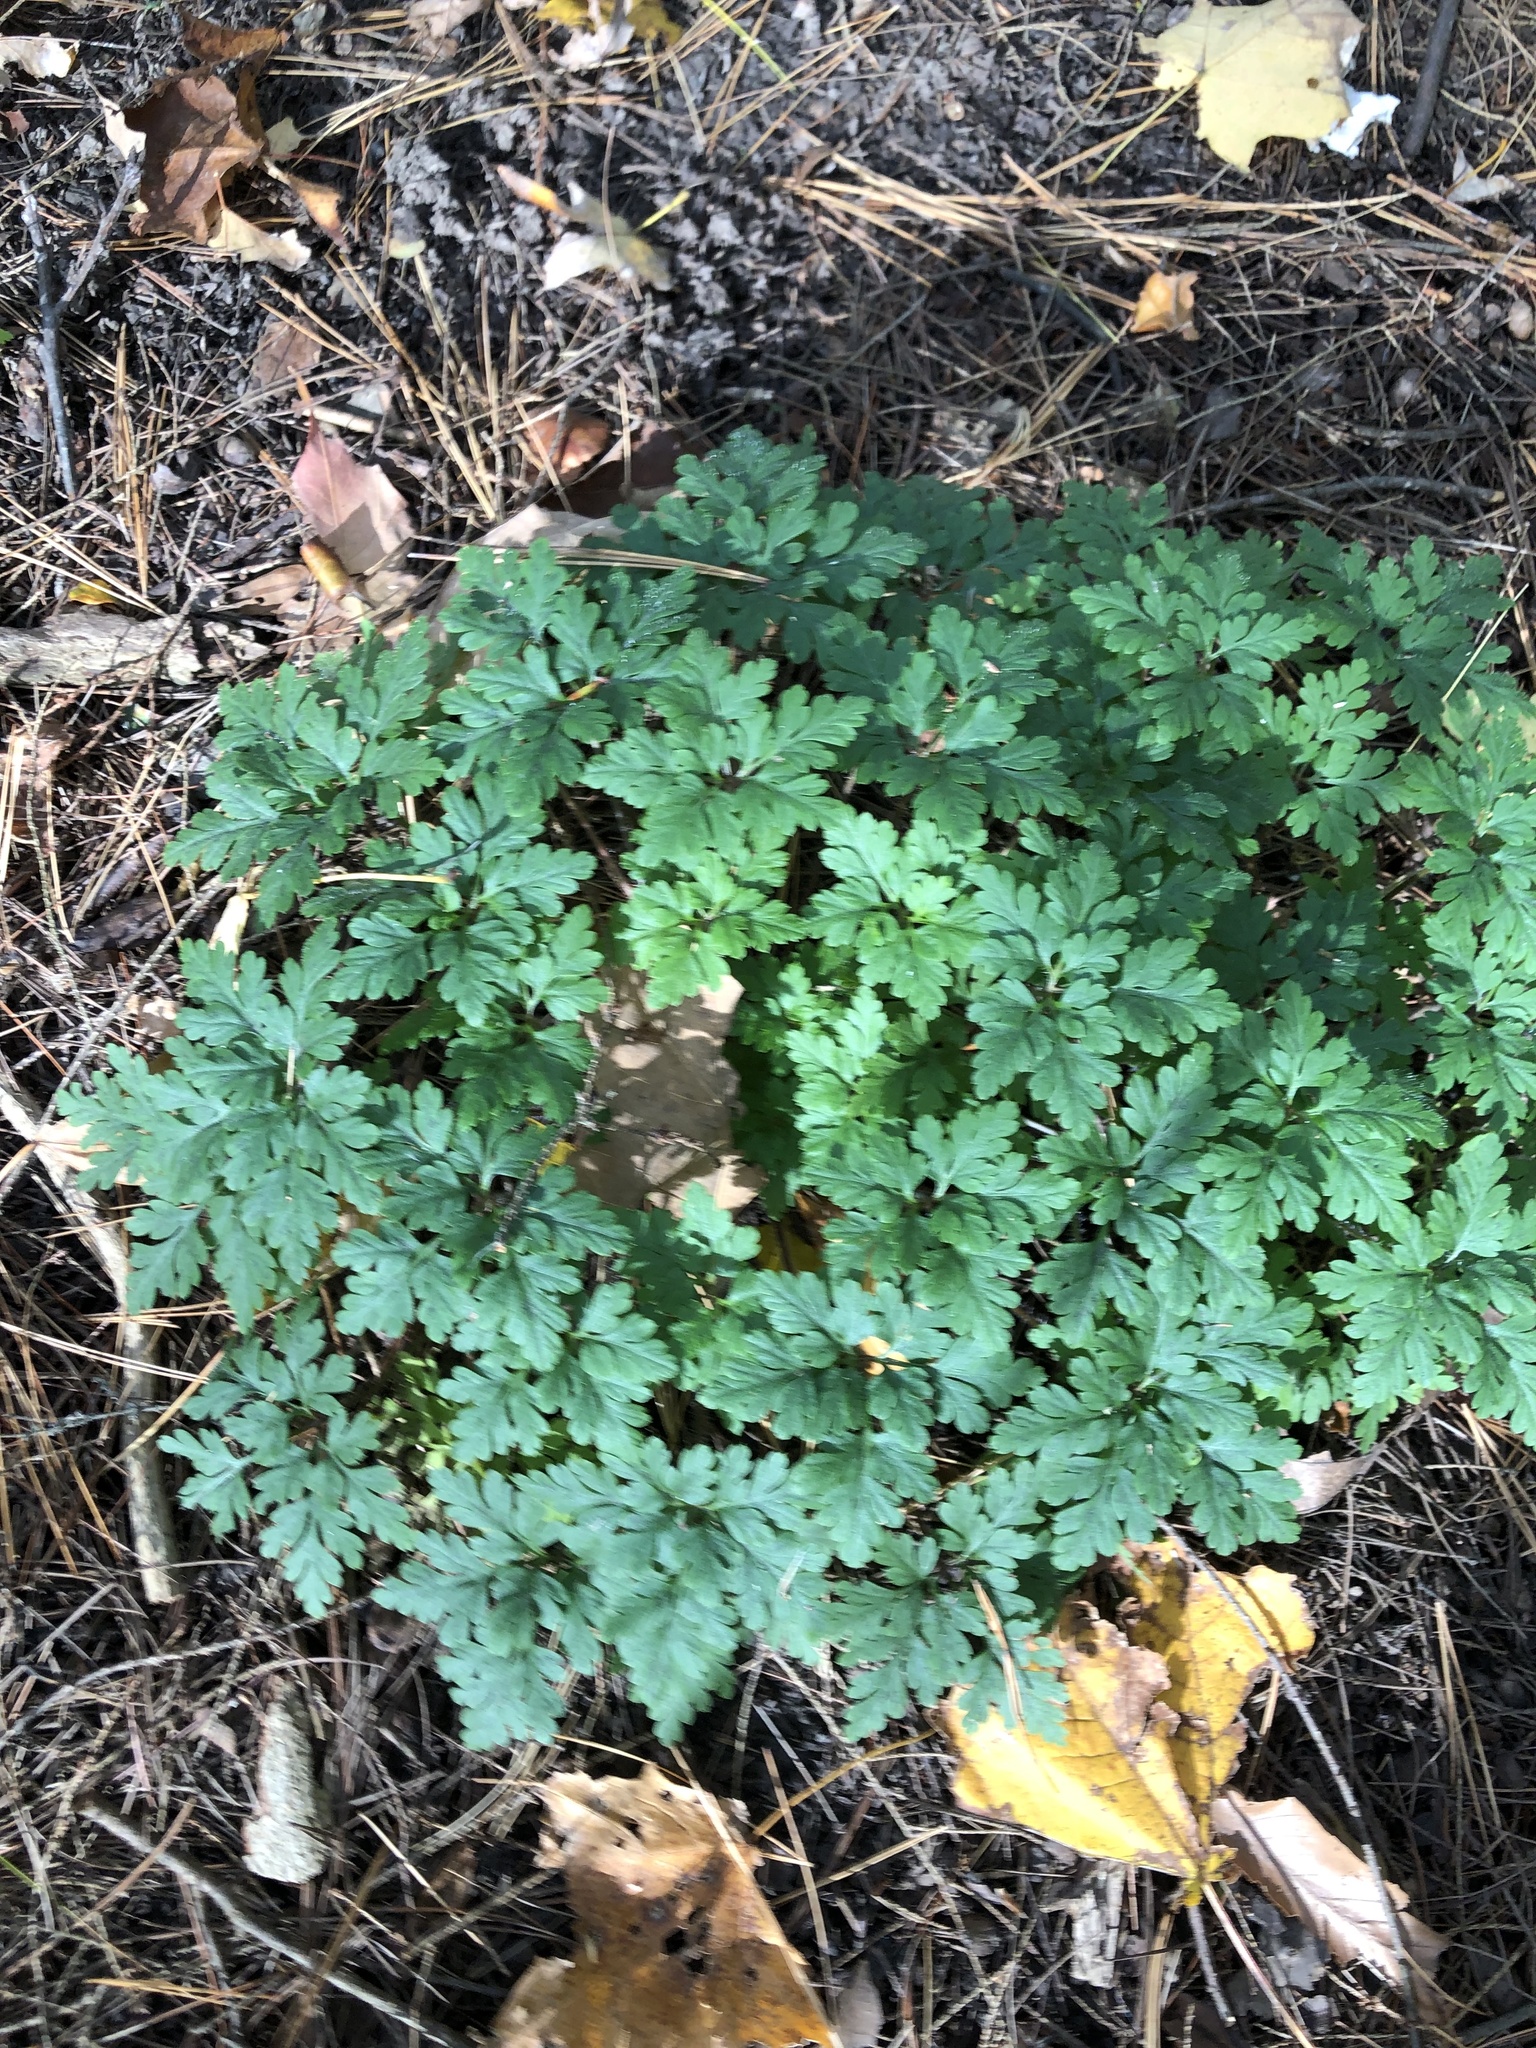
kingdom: Plantae
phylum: Tracheophyta
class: Magnoliopsida
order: Geraniales
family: Geraniaceae
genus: Geranium
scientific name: Geranium robertianum
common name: Herb-robert
